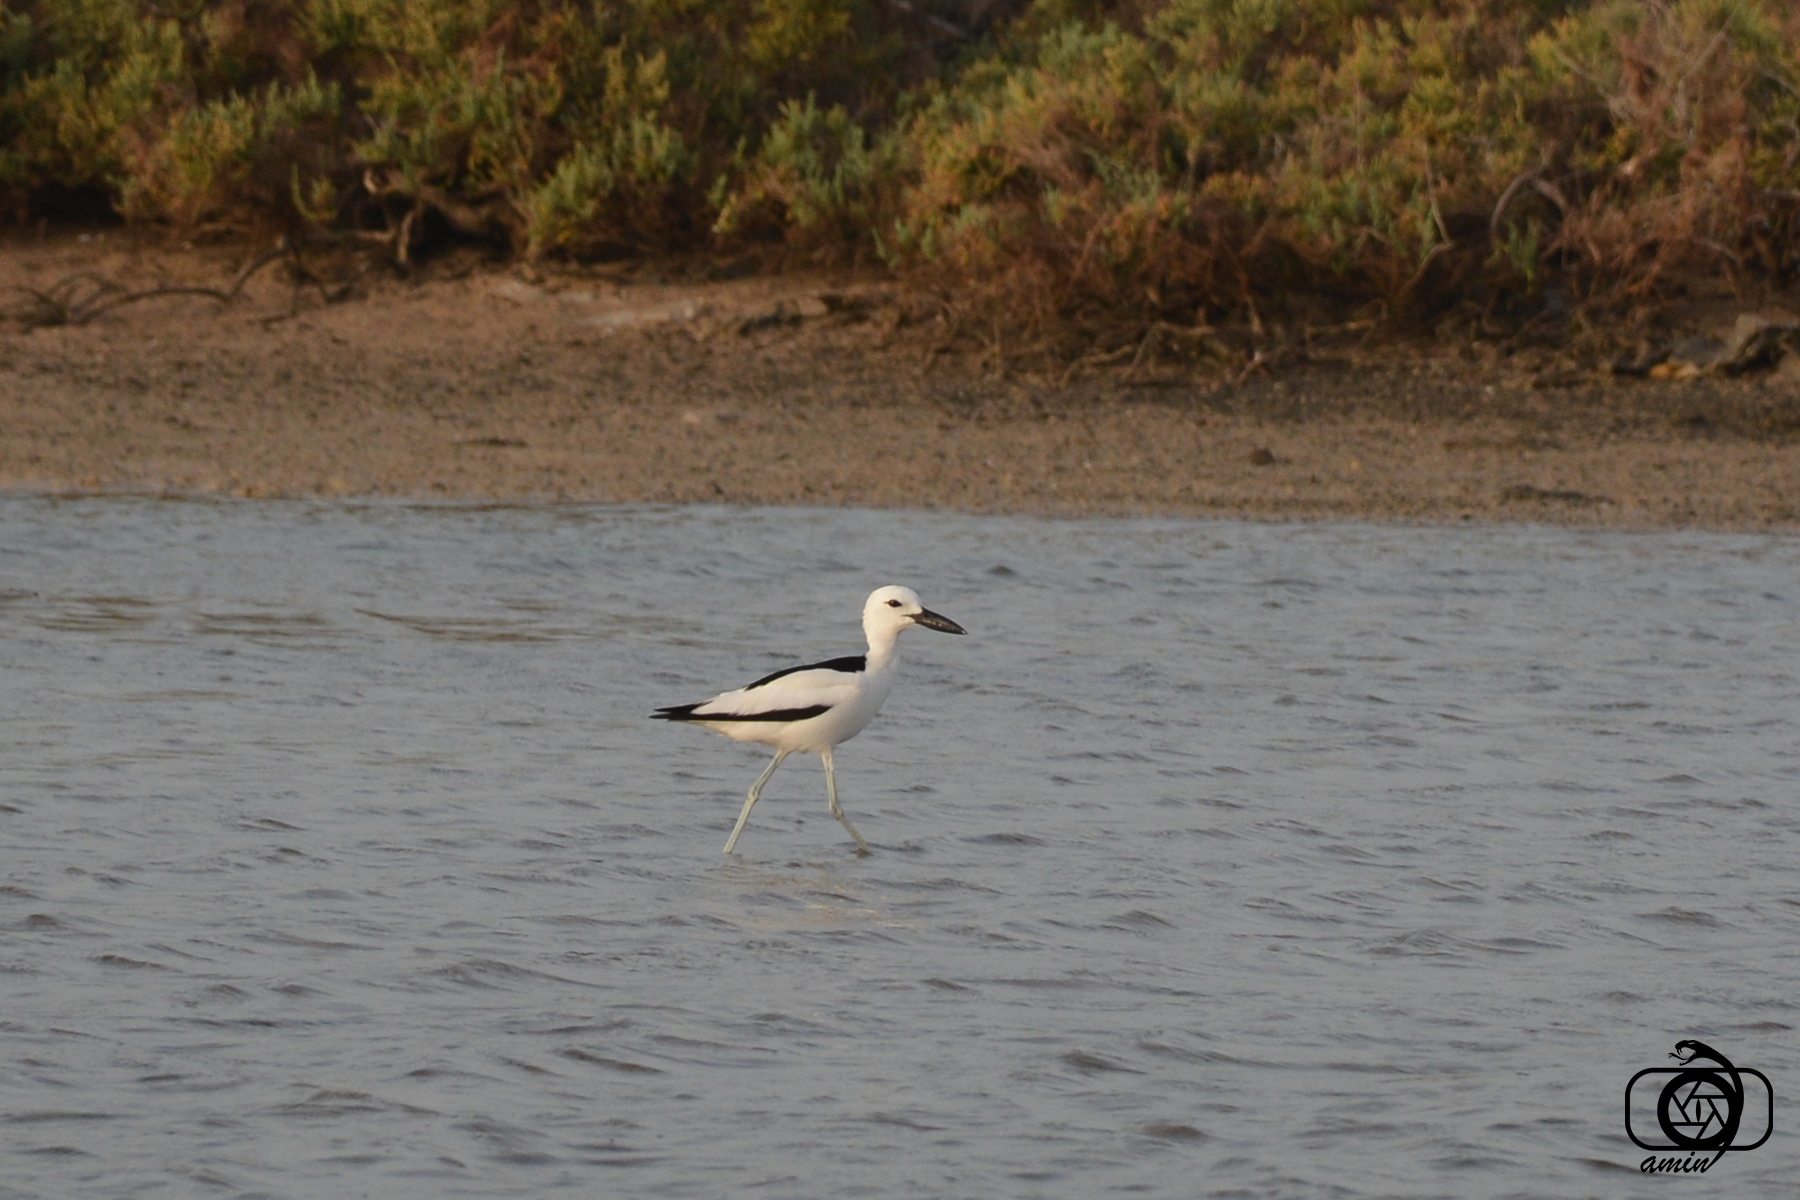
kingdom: Animalia
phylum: Chordata
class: Aves
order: Charadriiformes
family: Dromadidae
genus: Dromas
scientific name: Dromas ardeola
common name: Crab-plover
